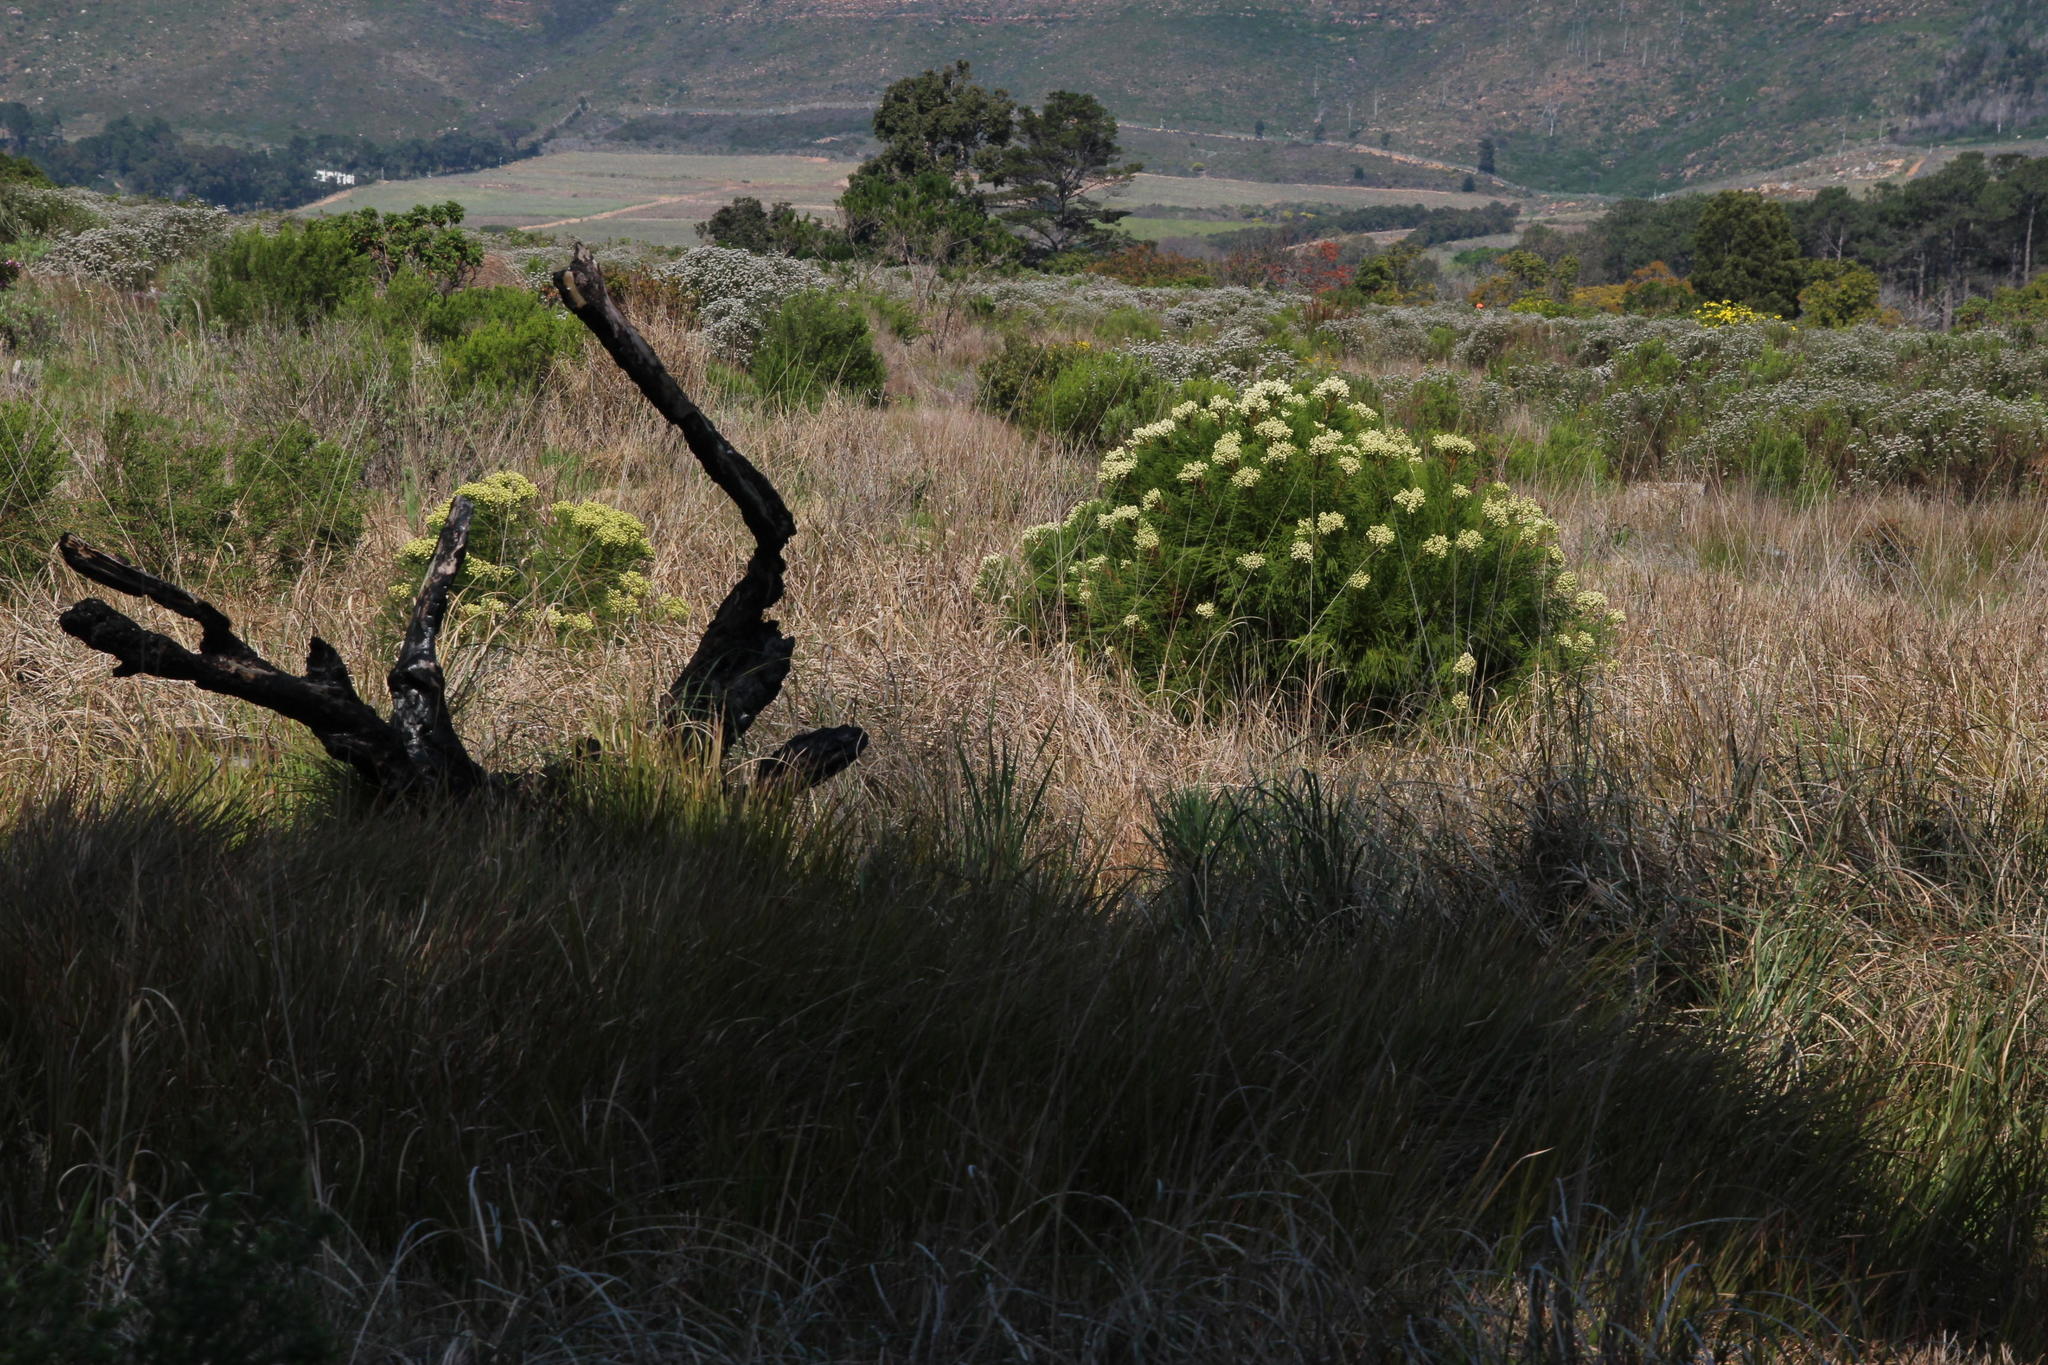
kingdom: Plantae
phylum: Tracheophyta
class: Magnoliopsida
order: Bruniales
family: Bruniaceae
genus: Berzelia
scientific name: Berzelia lanuginosa
